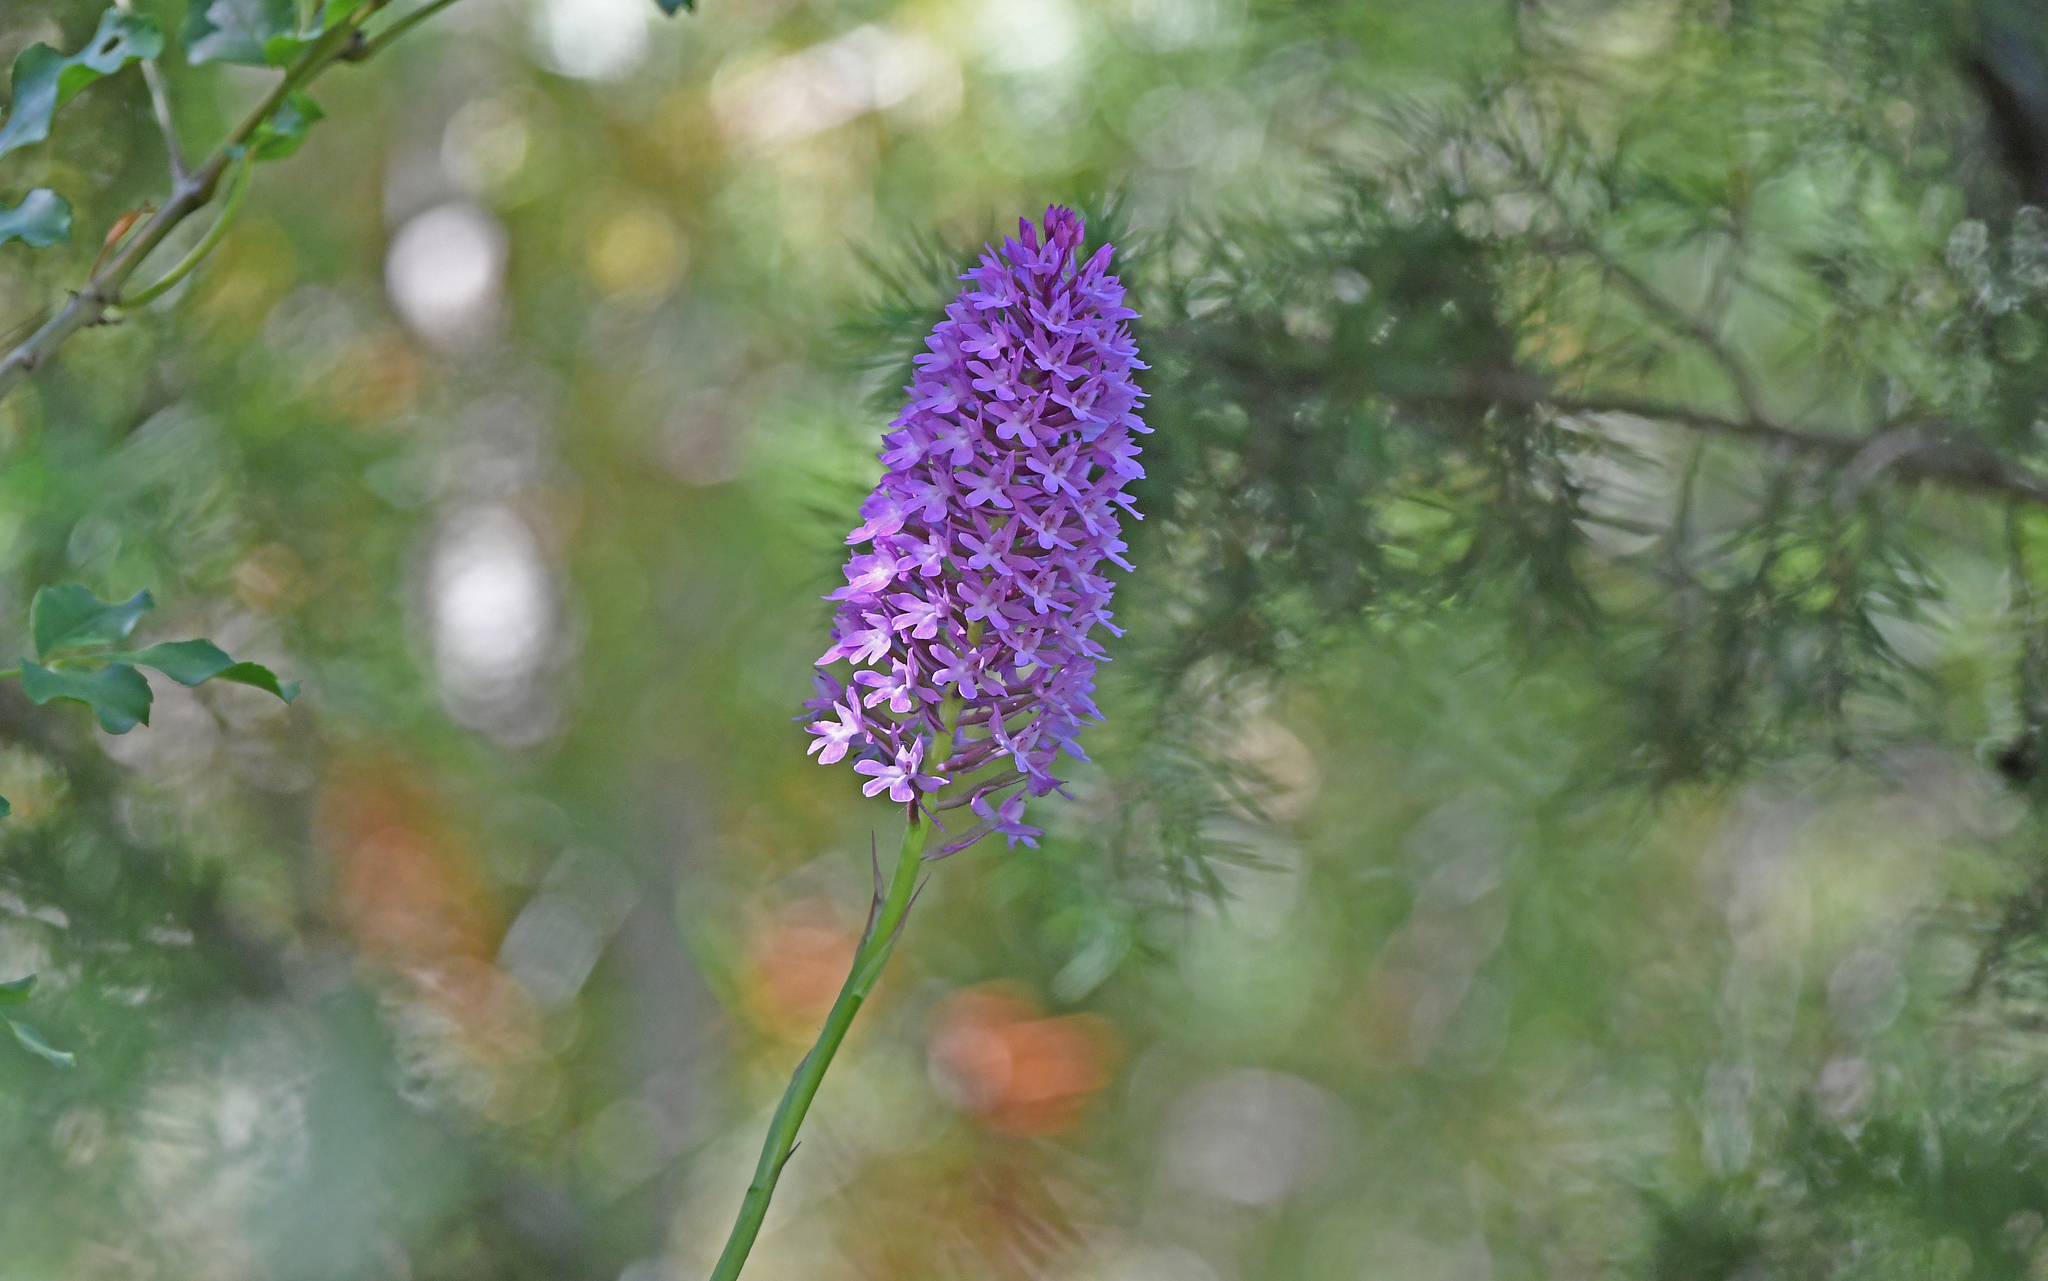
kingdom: Plantae
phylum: Tracheophyta
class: Liliopsida
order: Asparagales
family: Orchidaceae
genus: Anacamptis
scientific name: Anacamptis pyramidalis
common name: Pyramidal orchid
